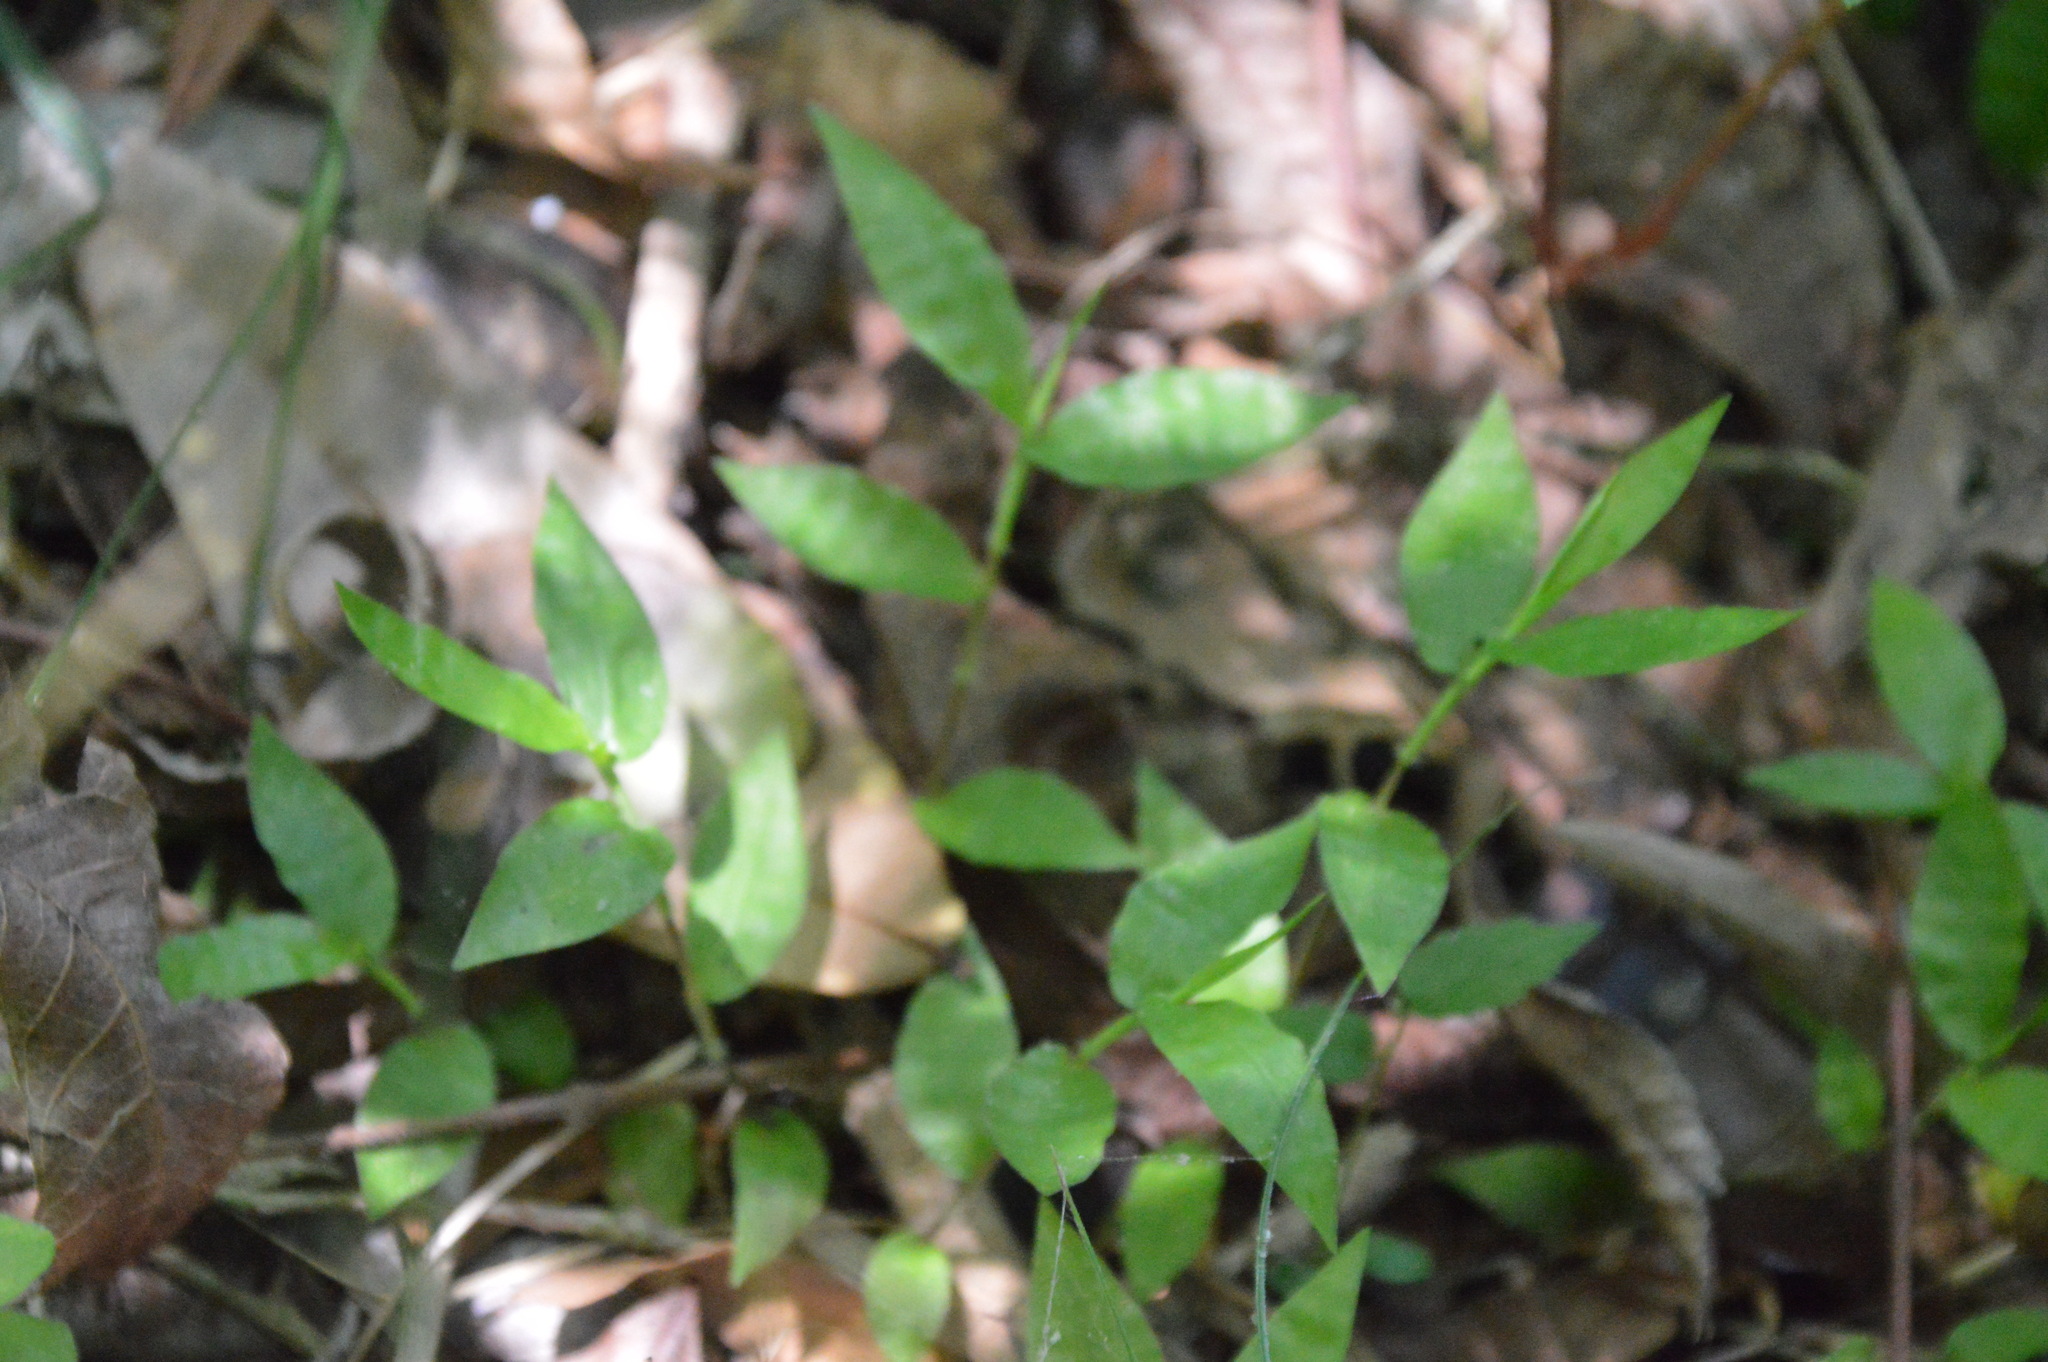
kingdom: Plantae
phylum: Tracheophyta
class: Liliopsida
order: Poales
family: Poaceae
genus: Oplismenus
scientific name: Oplismenus hirtellus
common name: Basketgrass
